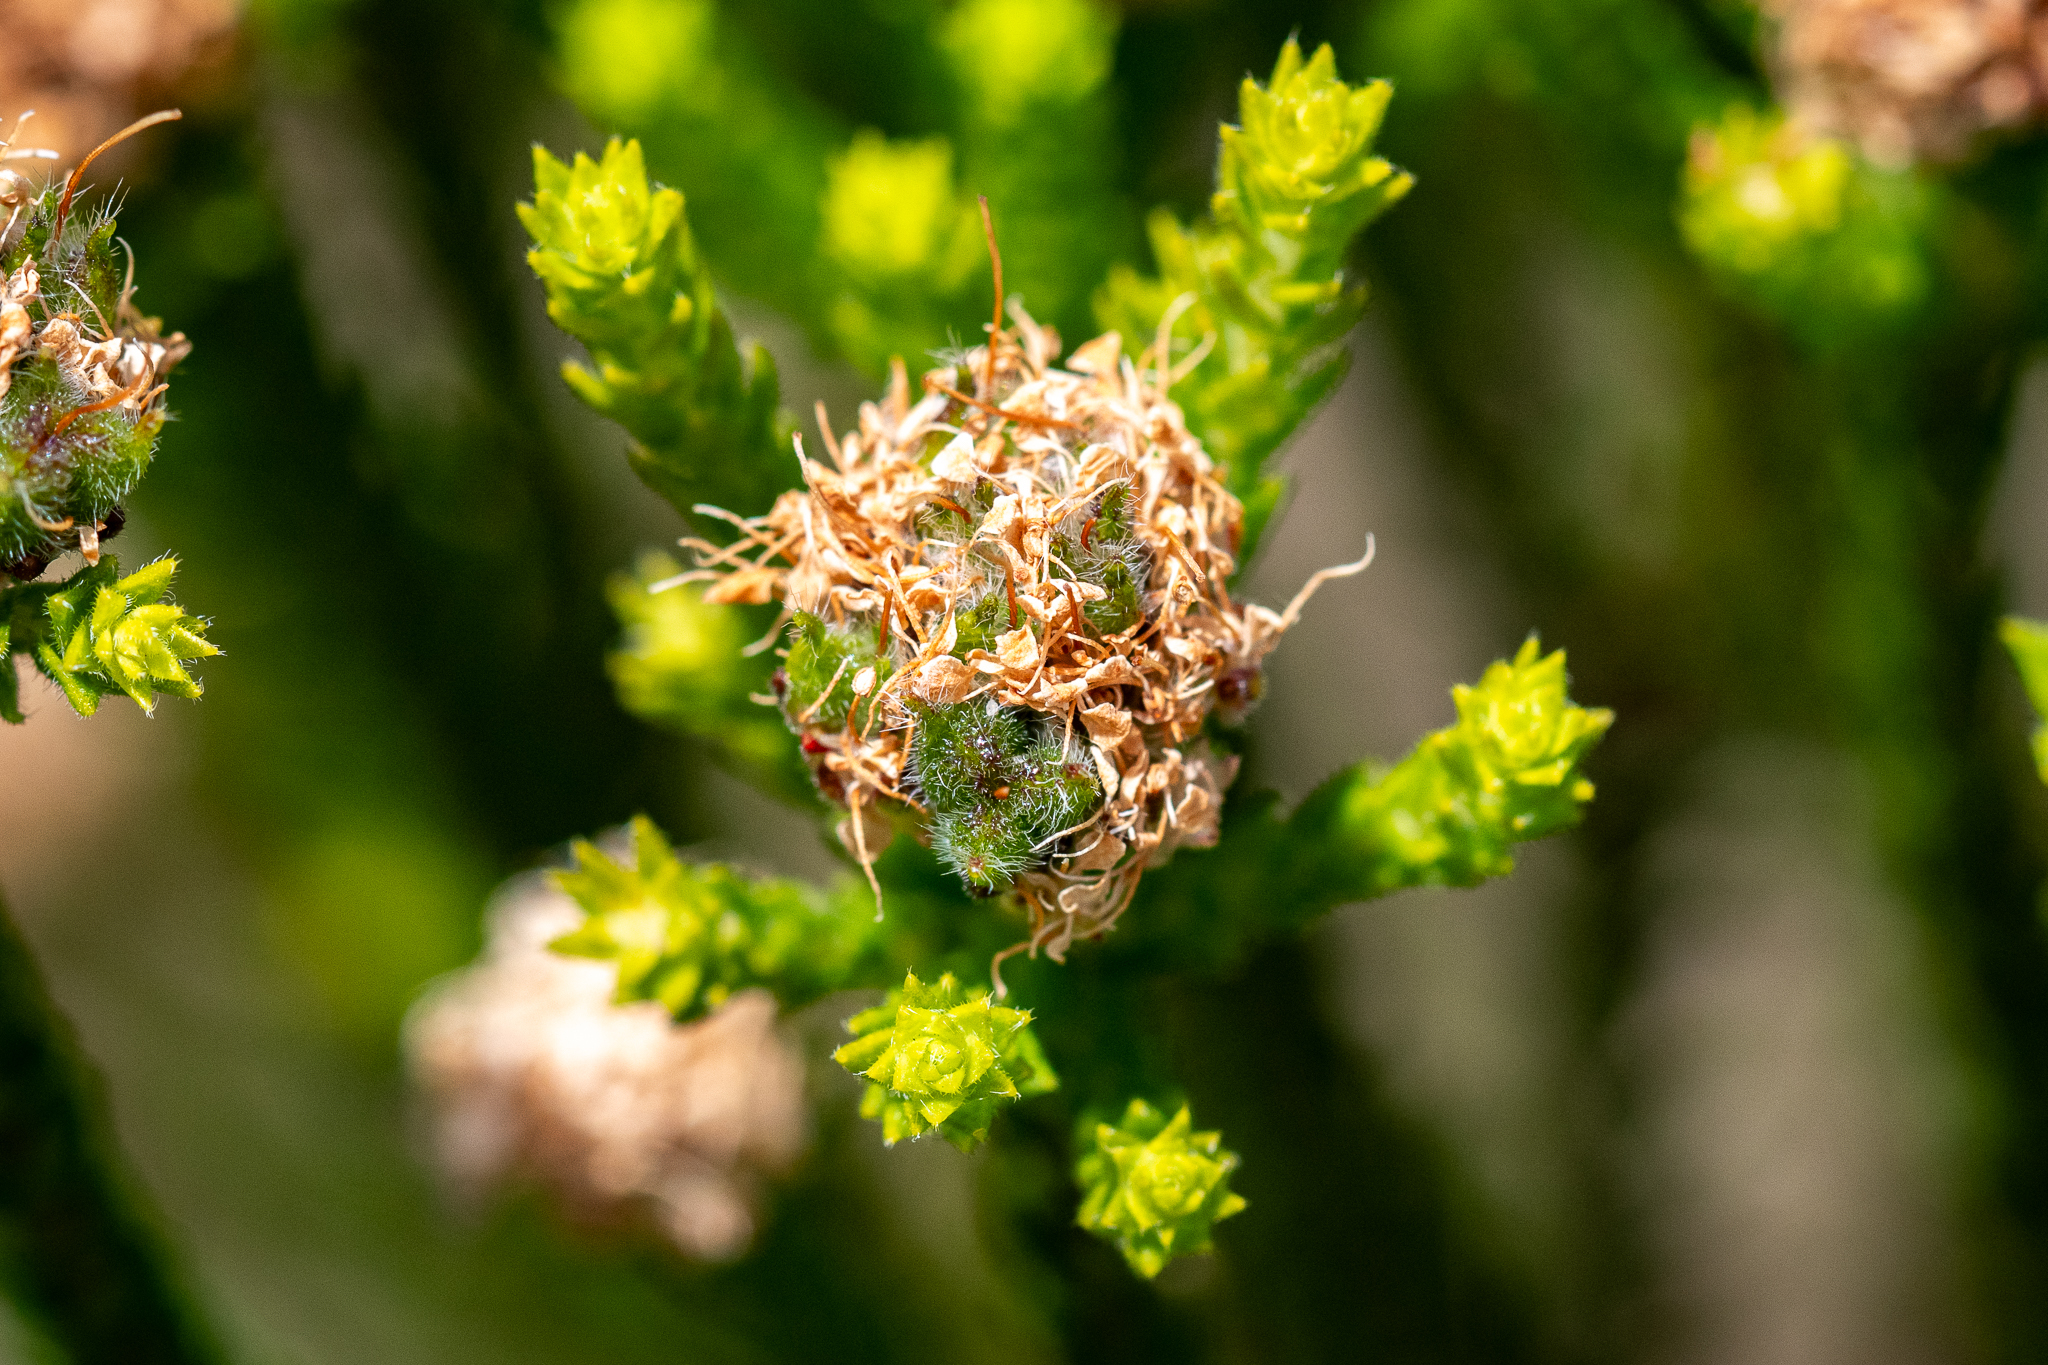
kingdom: Plantae
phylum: Tracheophyta
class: Magnoliopsida
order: Sapindales
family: Rutaceae
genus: Agathosma
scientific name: Agathosma imbricata
